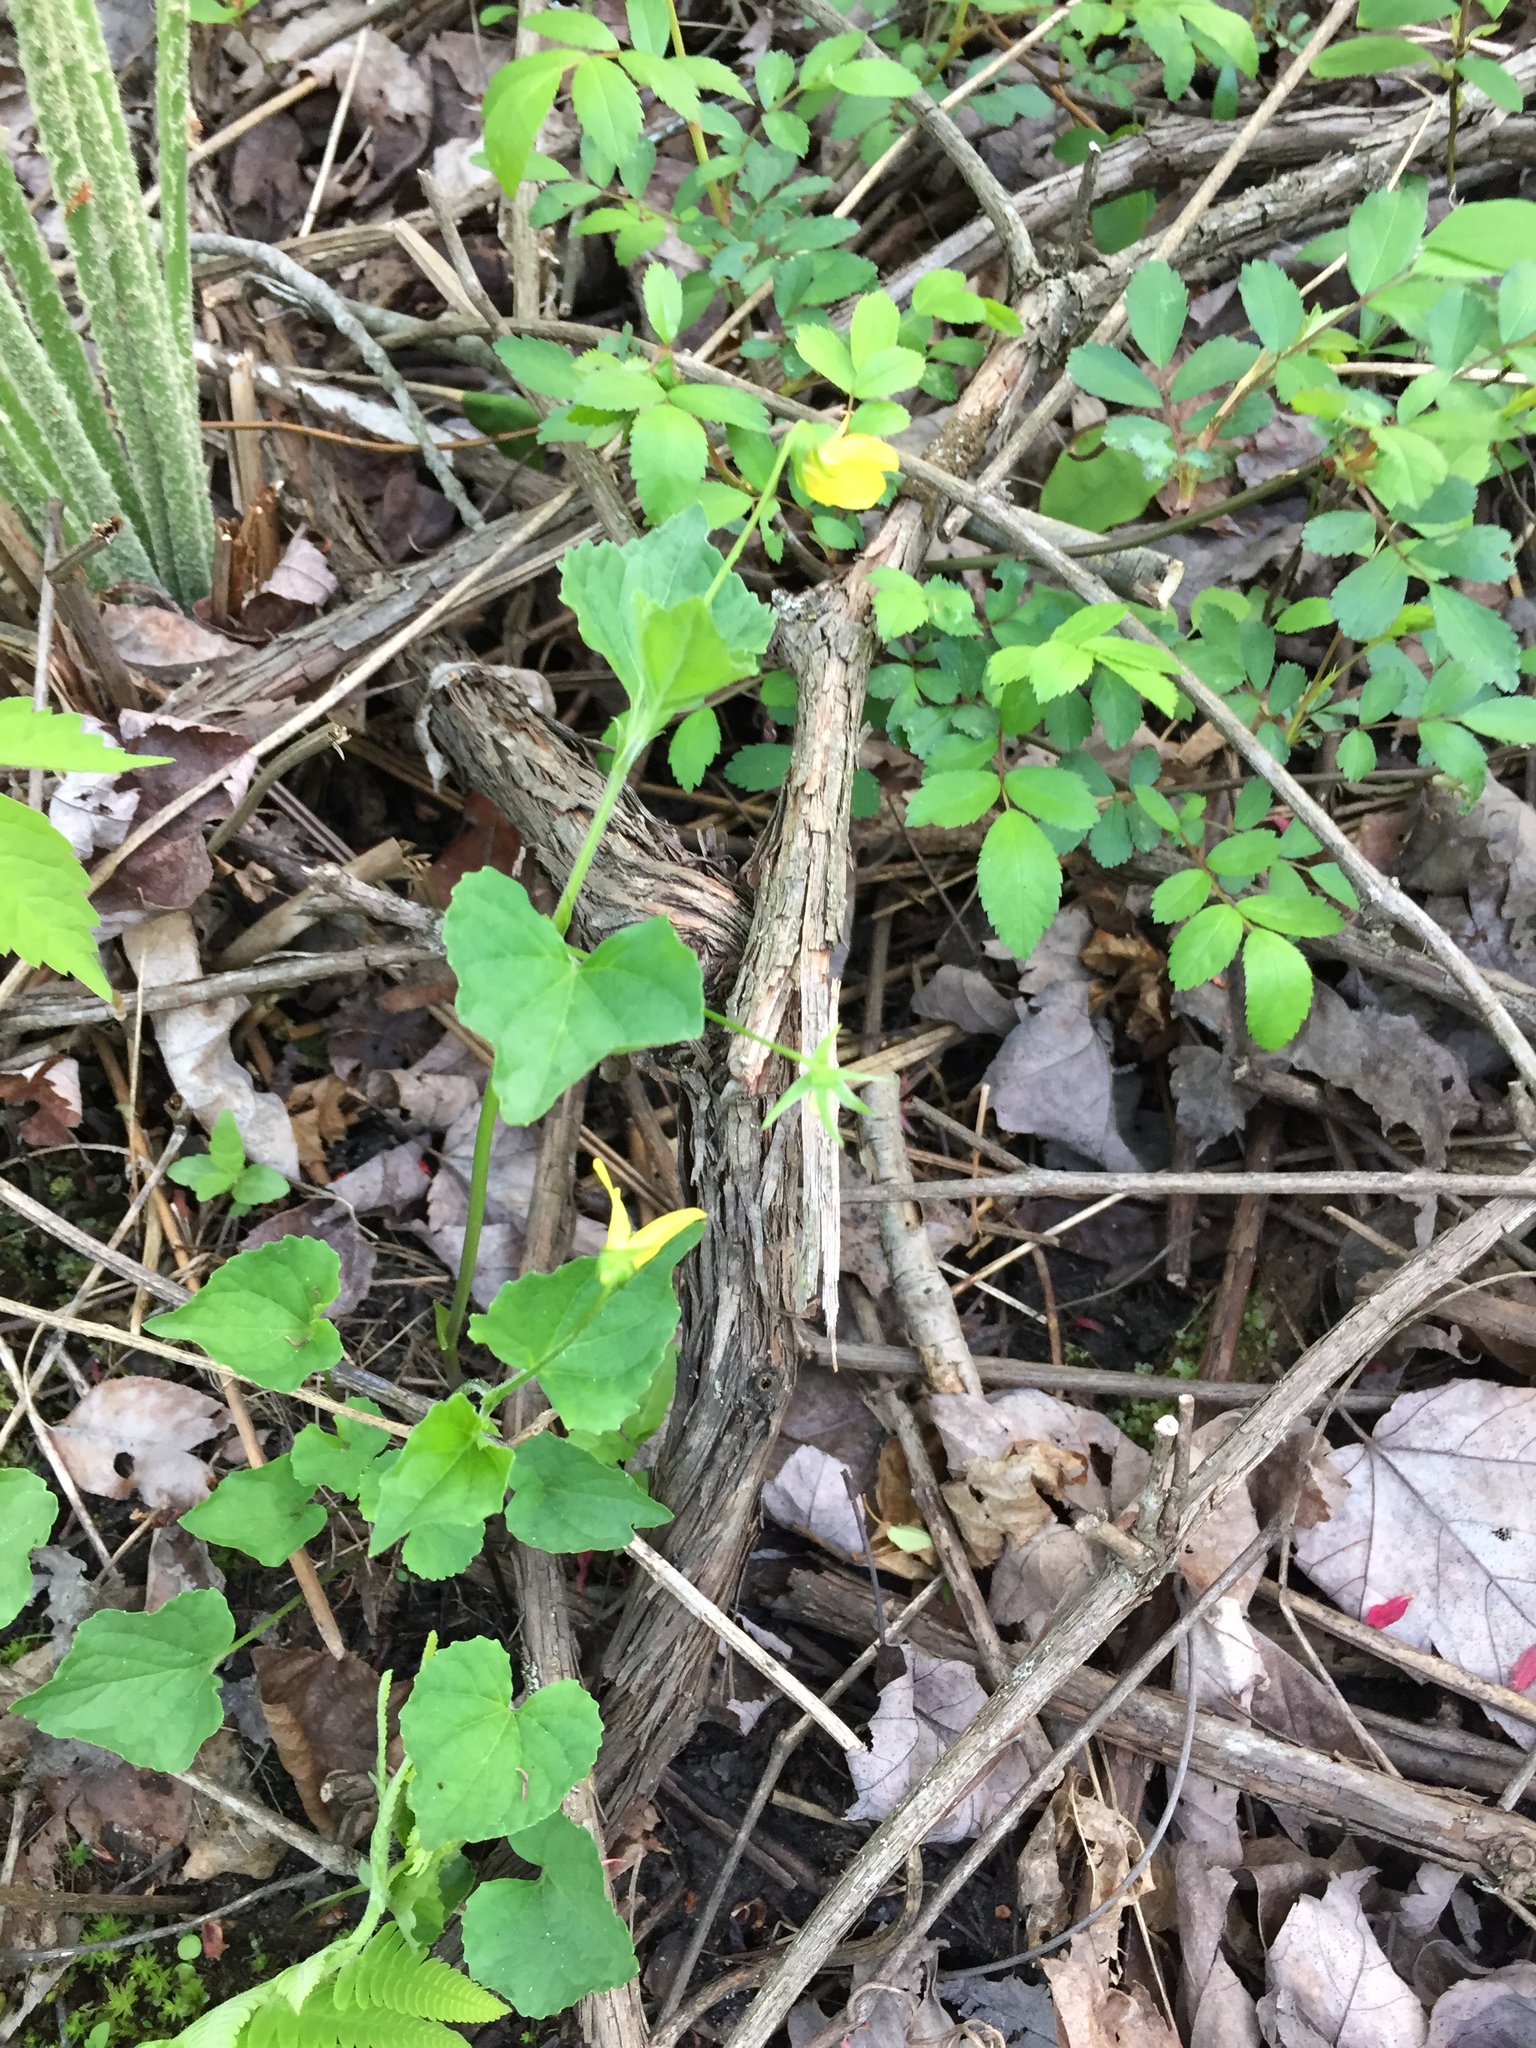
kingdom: Plantae
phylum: Tracheophyta
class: Magnoliopsida
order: Malpighiales
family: Violaceae
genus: Viola
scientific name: Viola eriocarpa
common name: Smooth yellow violet
